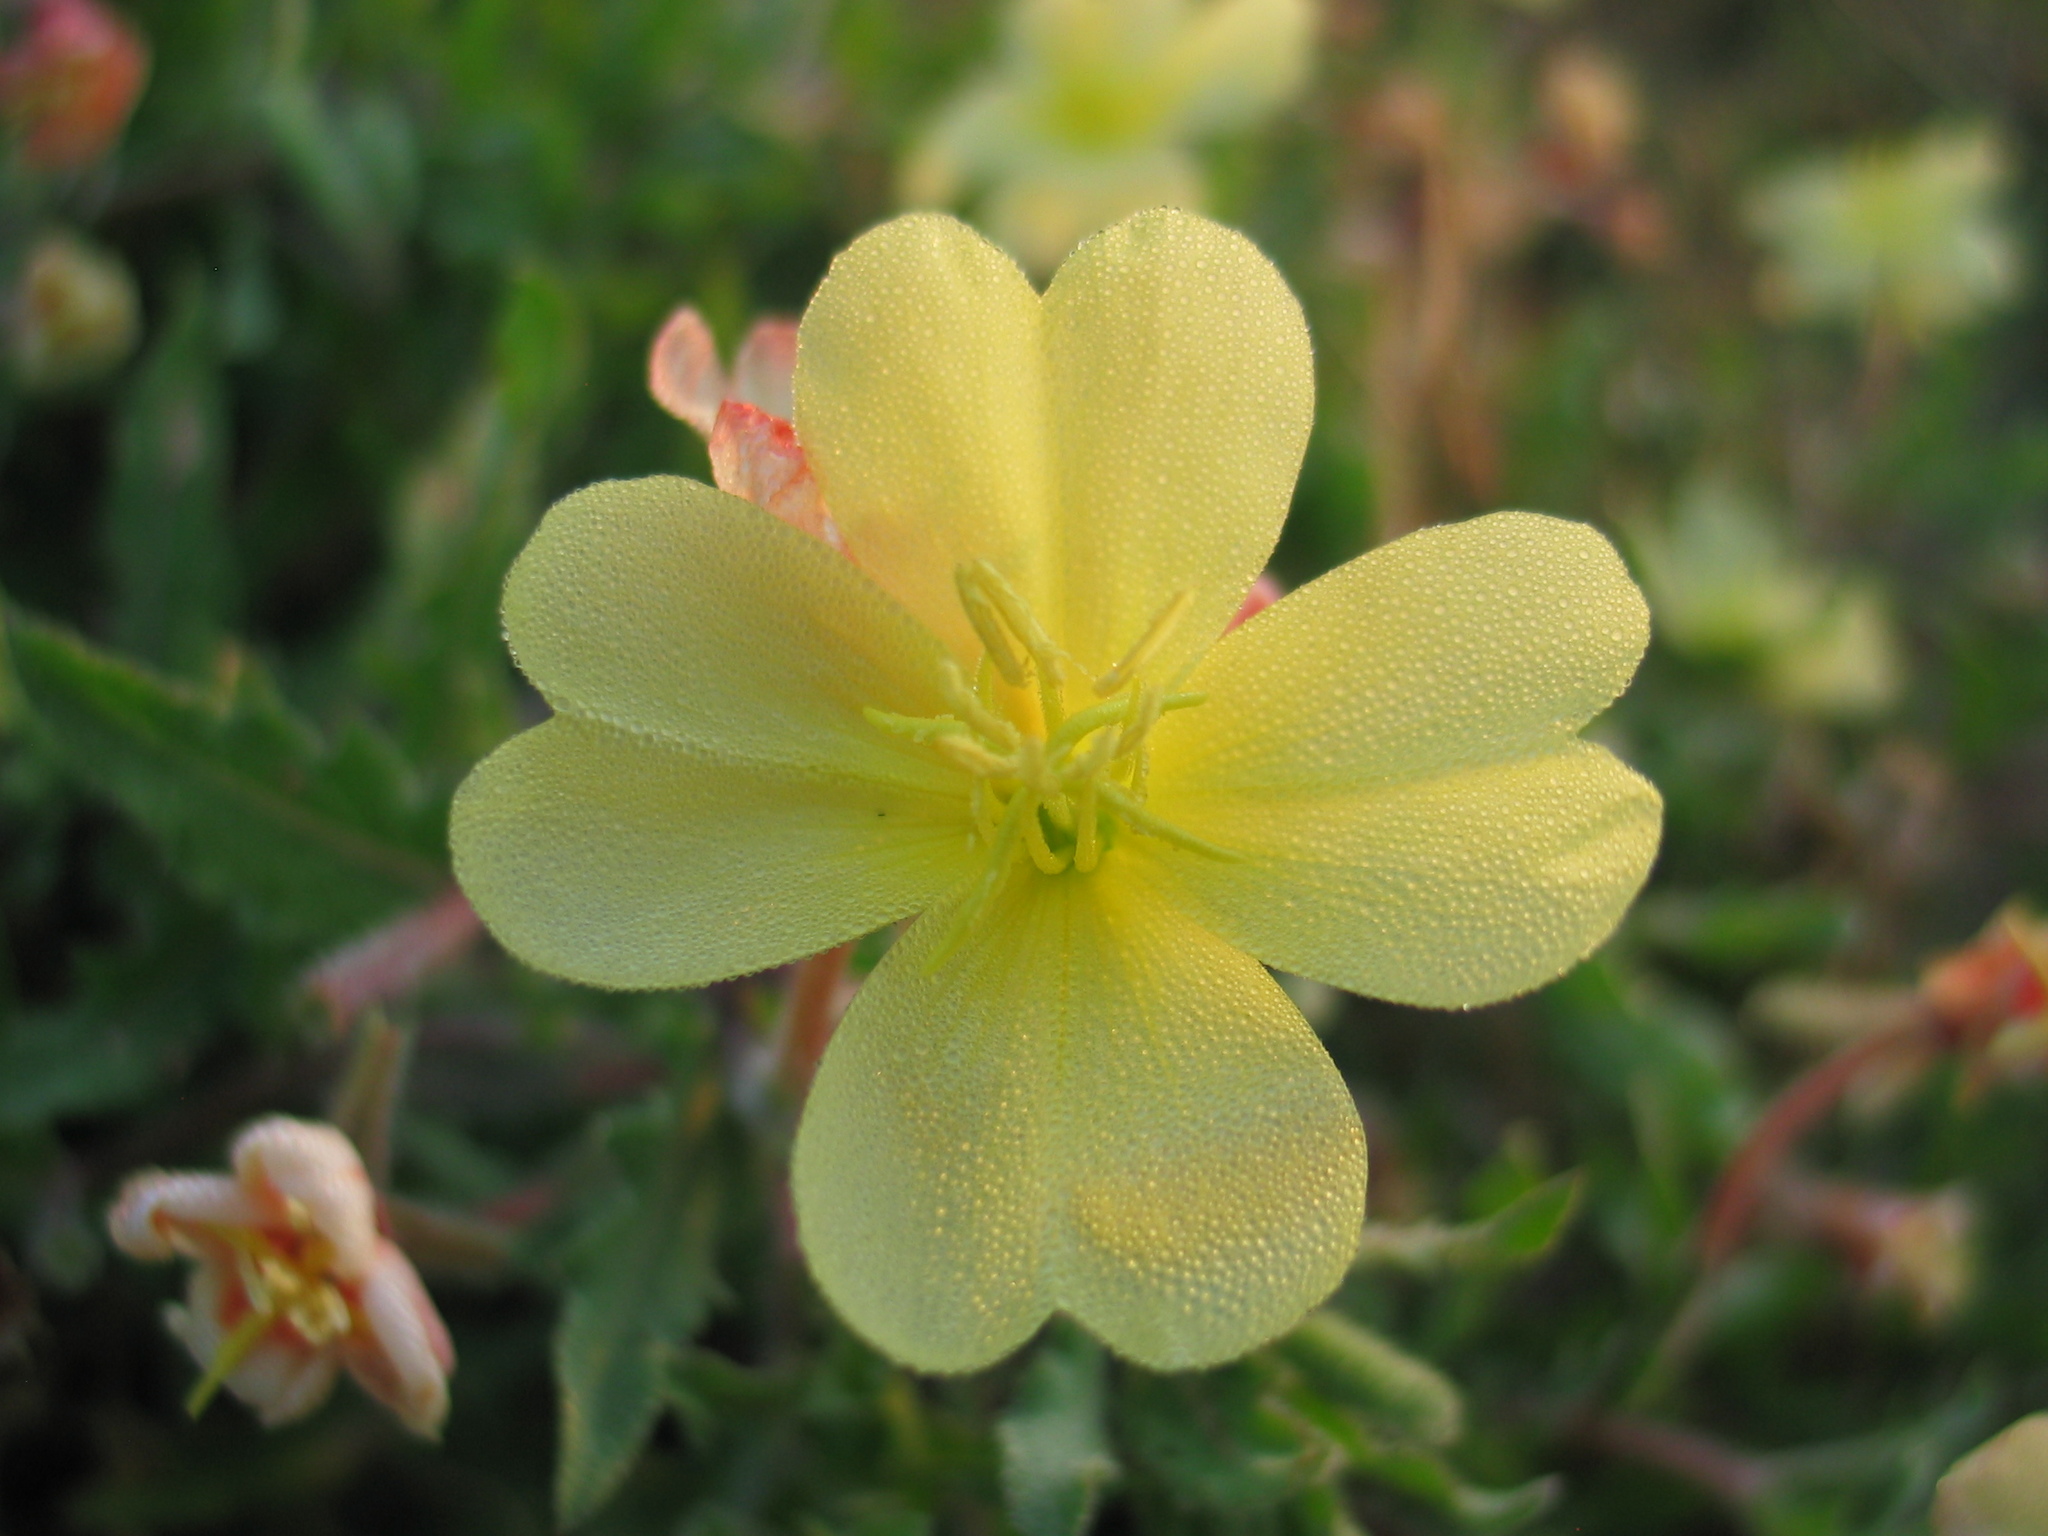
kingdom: Plantae
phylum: Tracheophyta
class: Magnoliopsida
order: Myrtales
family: Onagraceae
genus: Oenothera
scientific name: Oenothera humifusa
